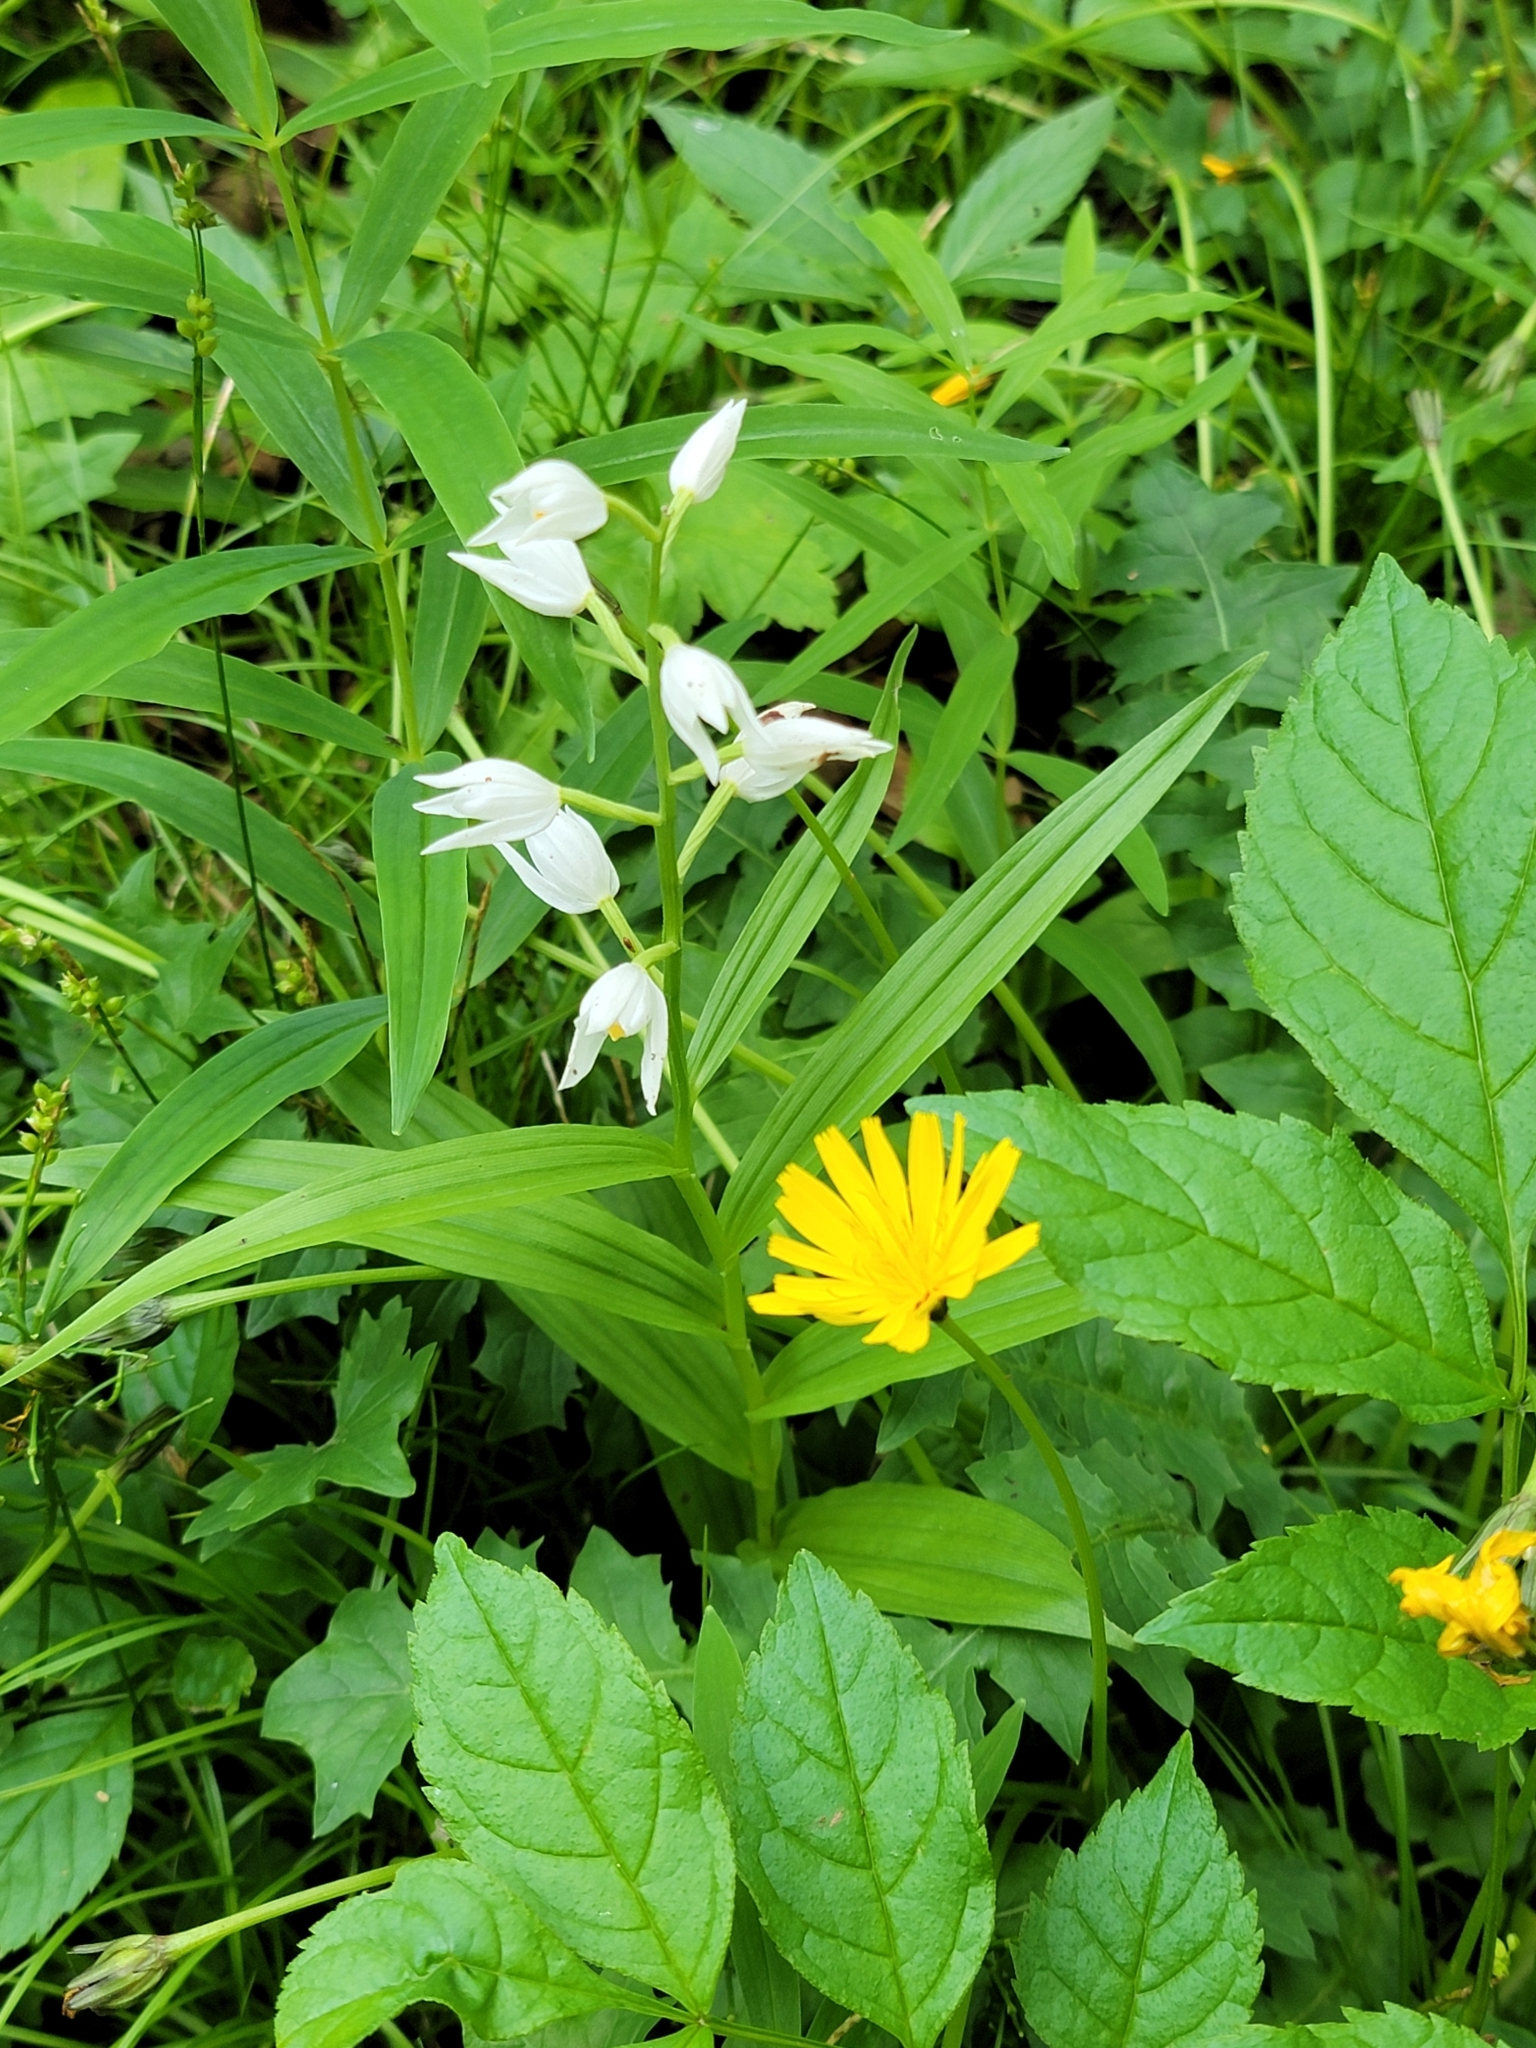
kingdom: Plantae
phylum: Tracheophyta
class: Liliopsida
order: Asparagales
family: Orchidaceae
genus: Cephalanthera
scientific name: Cephalanthera longifolia
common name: Narrow-leaved helleborine
